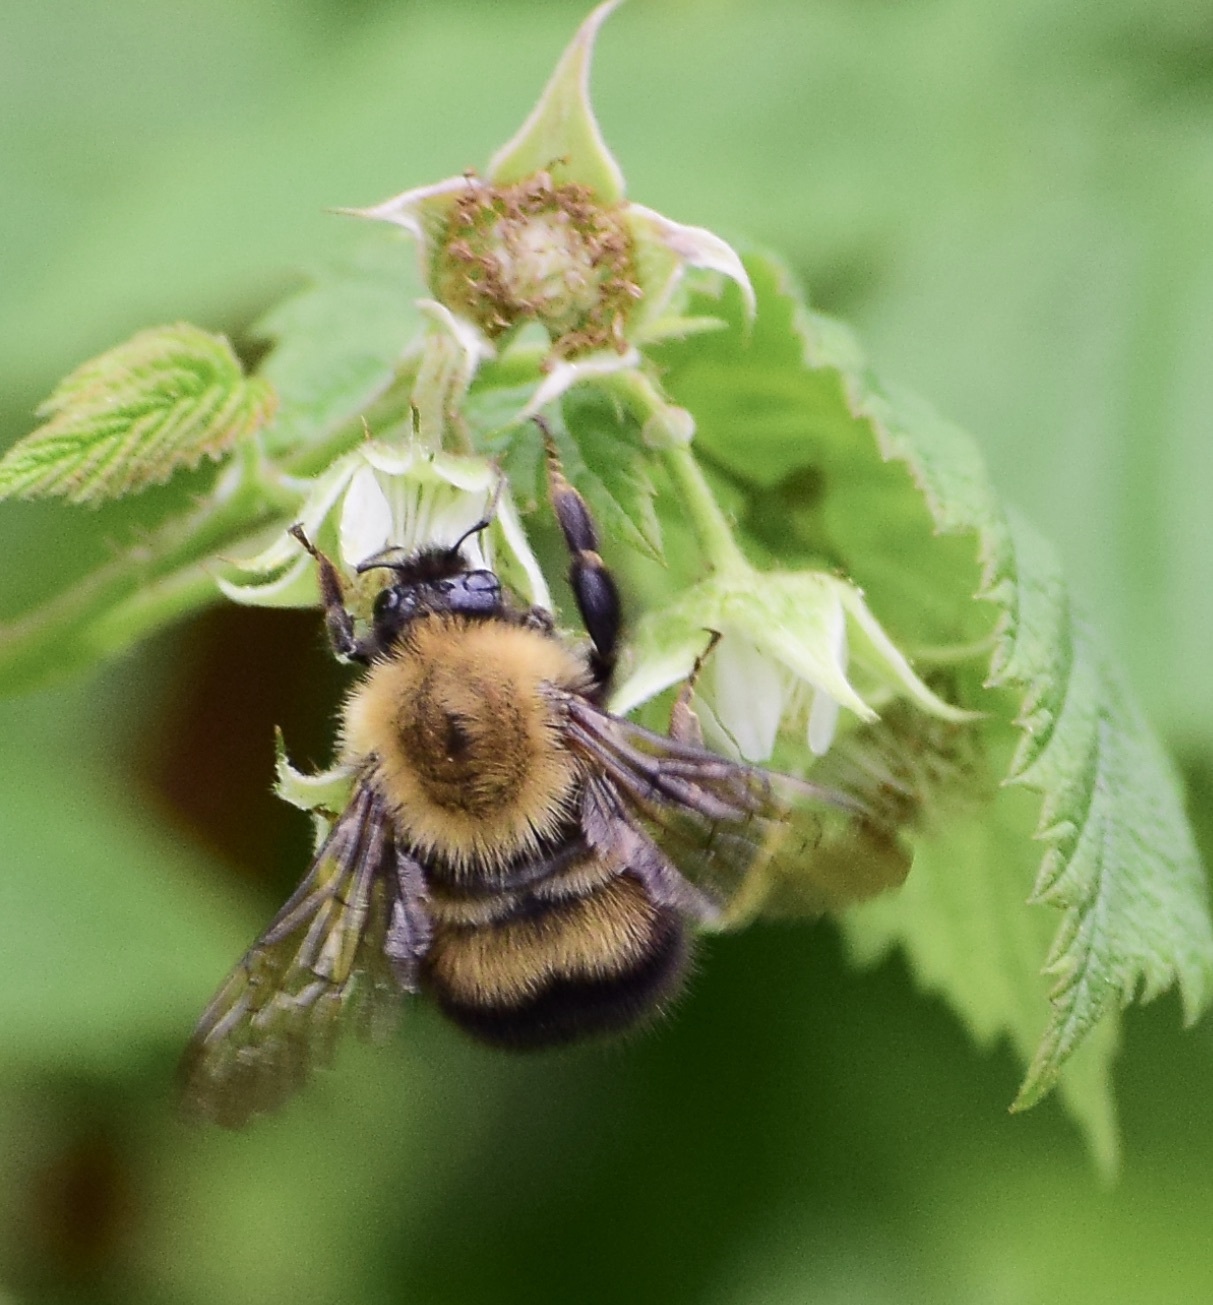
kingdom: Animalia
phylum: Arthropoda
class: Insecta
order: Hymenoptera
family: Apidae
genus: Bombus
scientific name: Bombus perplexus
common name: Confusing bumble bee
